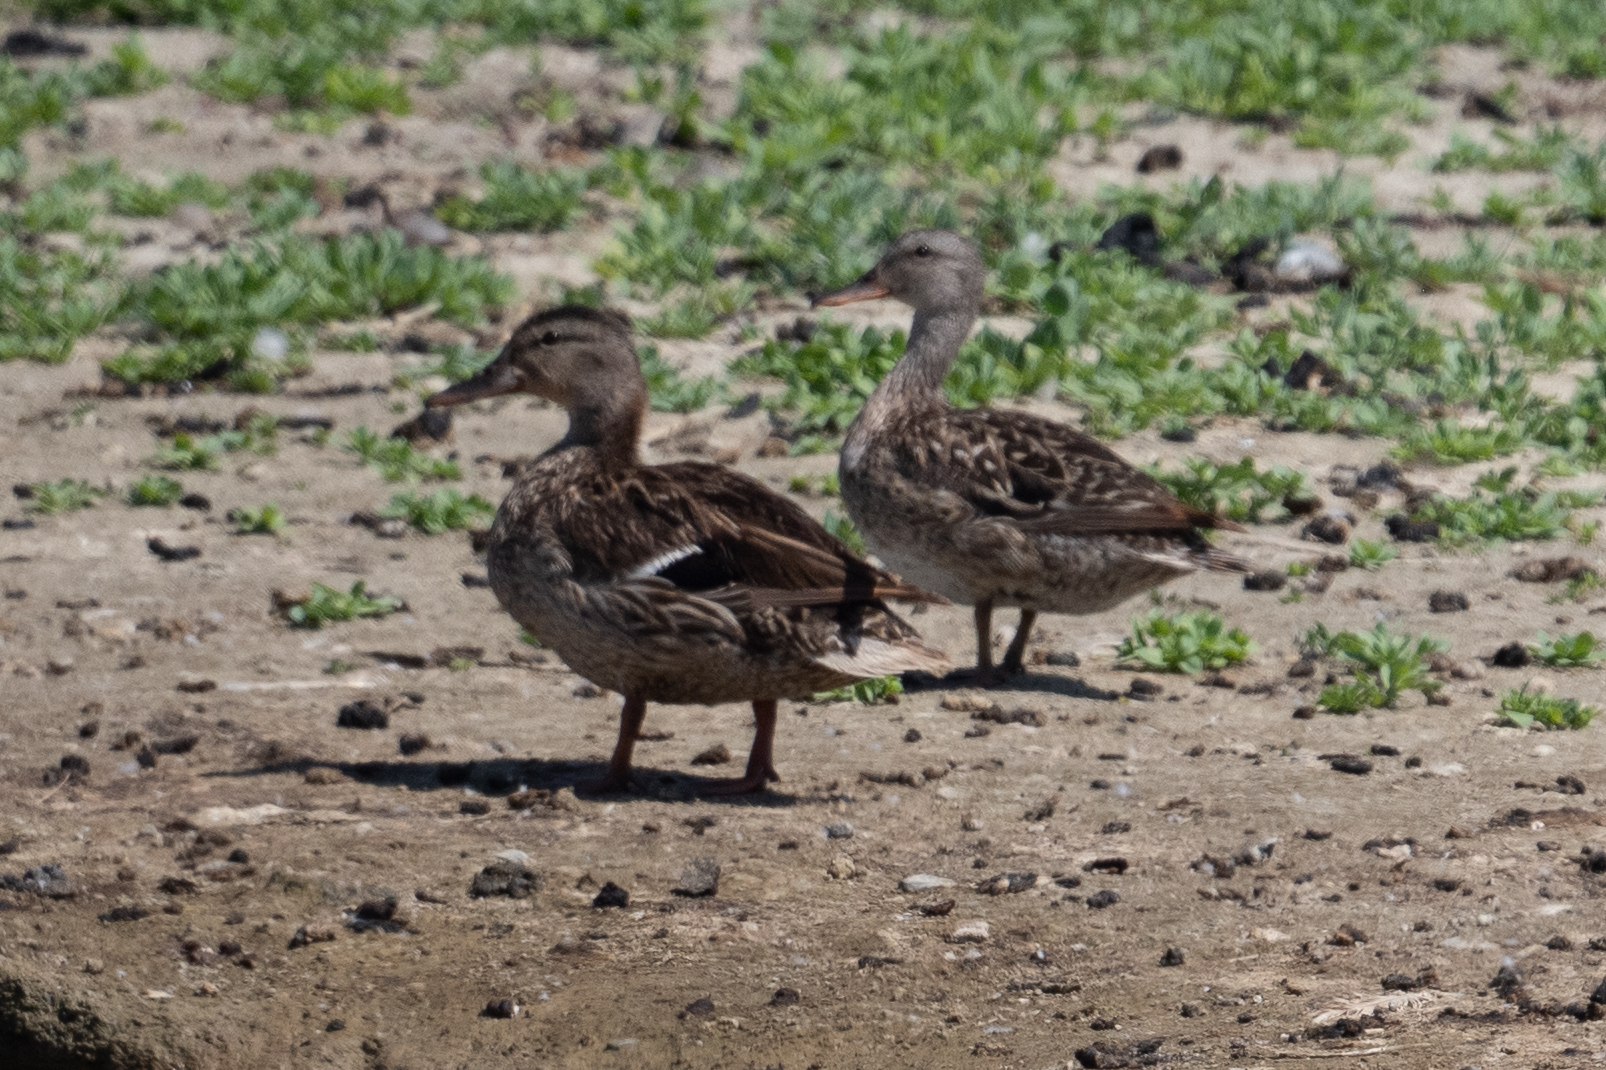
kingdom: Animalia
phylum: Chordata
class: Aves
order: Anseriformes
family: Anatidae
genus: Mareca
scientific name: Mareca strepera
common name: Gadwall
